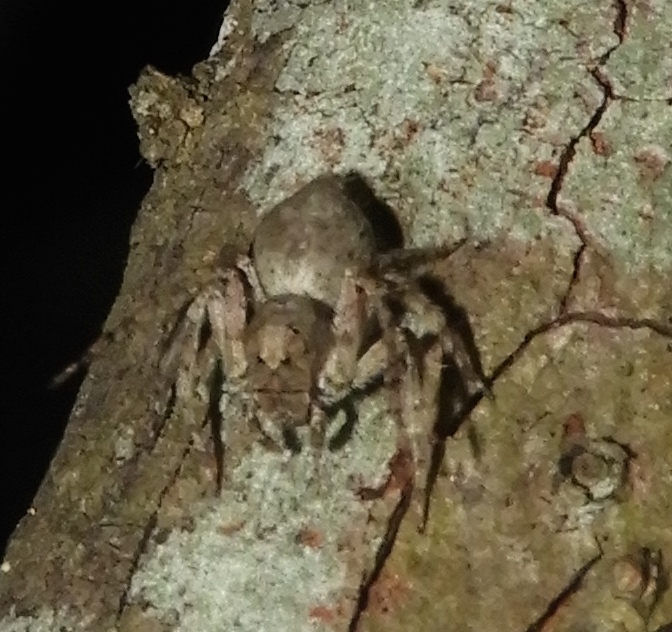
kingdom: Animalia
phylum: Arthropoda
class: Arachnida
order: Araneae
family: Oxyopidae
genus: Hamataliwa
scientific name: Hamataliwa
